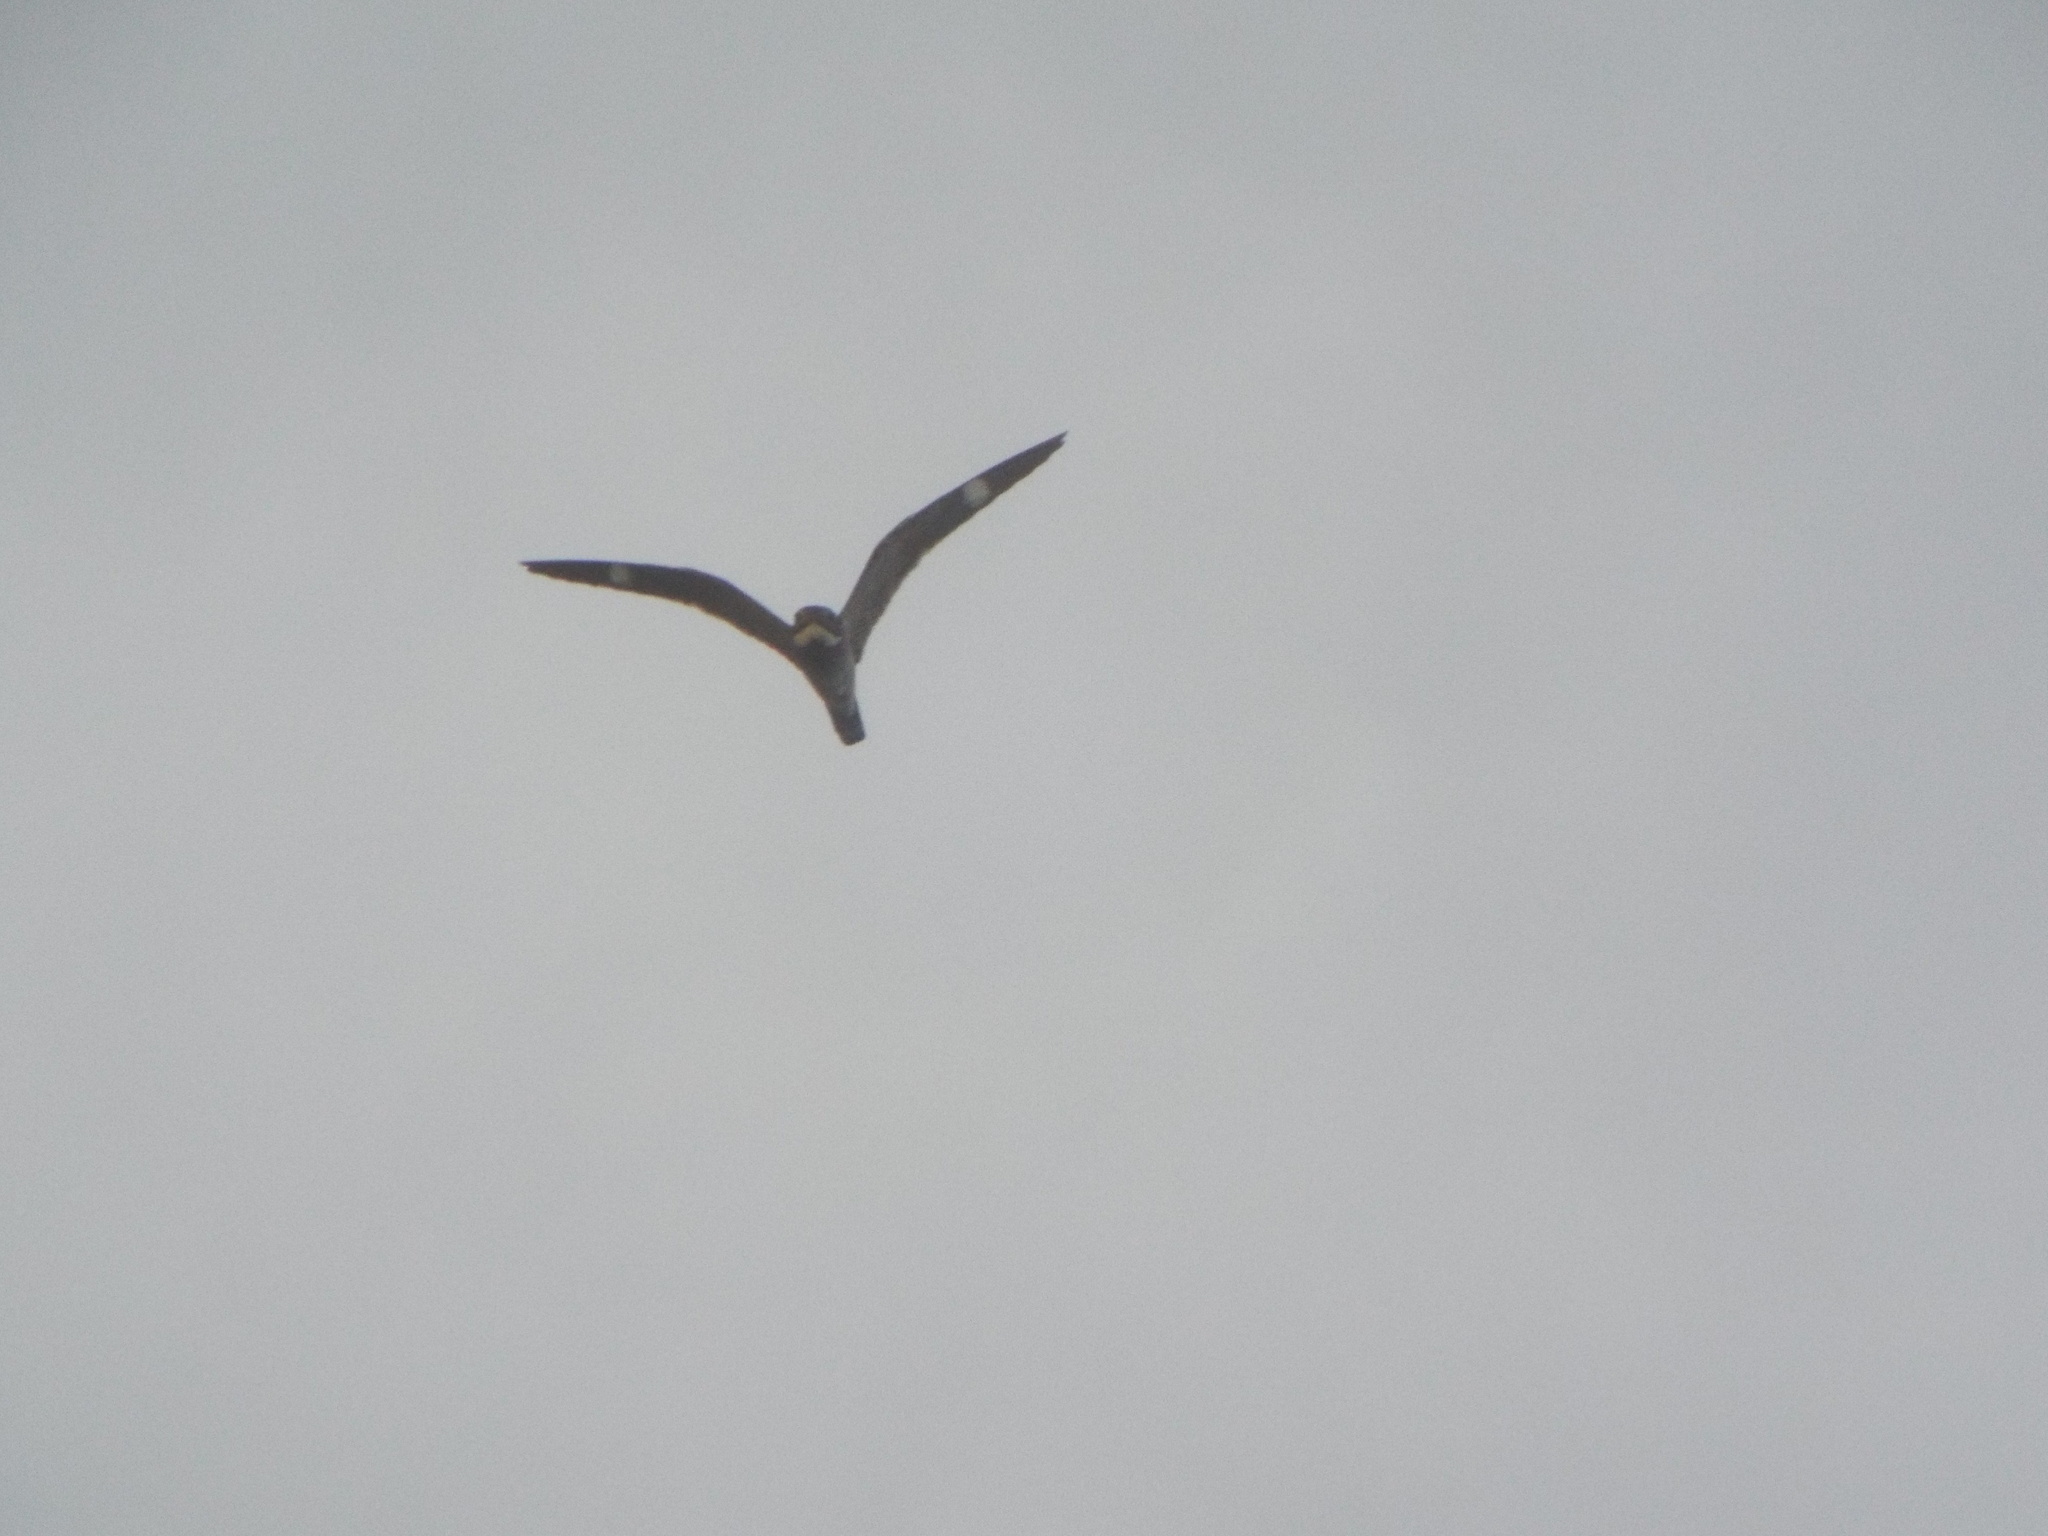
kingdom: Animalia
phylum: Chordata
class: Aves
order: Caprimulgiformes
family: Caprimulgidae
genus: Chordeiles
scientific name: Chordeiles minor
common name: Common nighthawk
